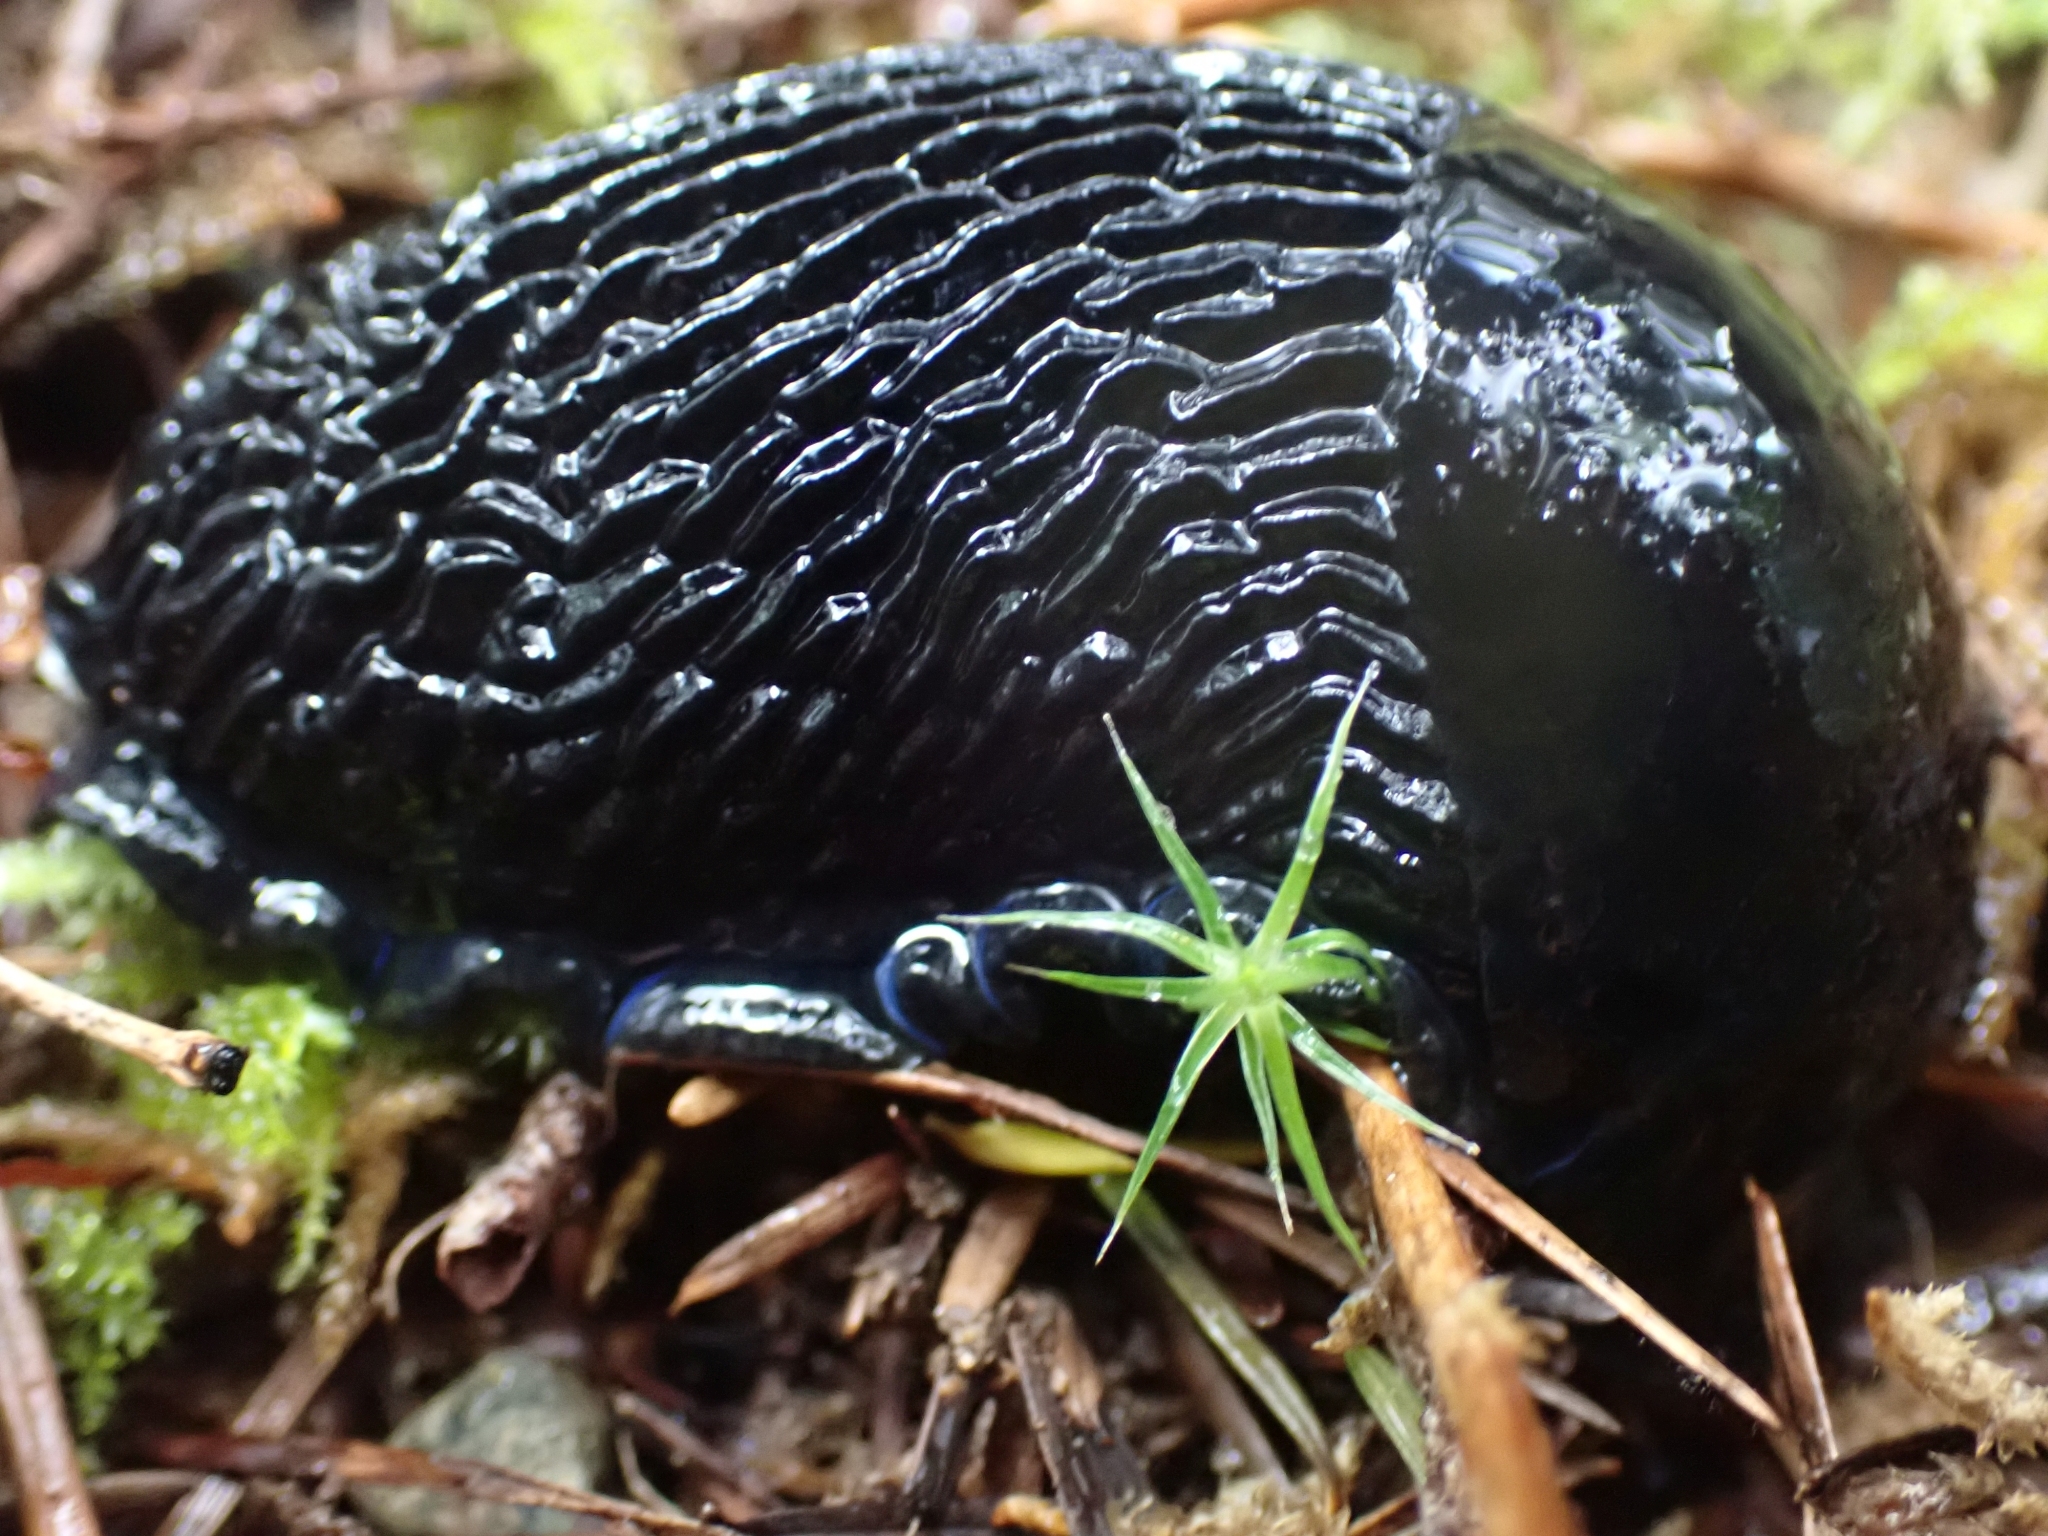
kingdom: Animalia
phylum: Mollusca
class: Gastropoda
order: Stylommatophora
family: Arionidae
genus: Arion
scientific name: Arion
